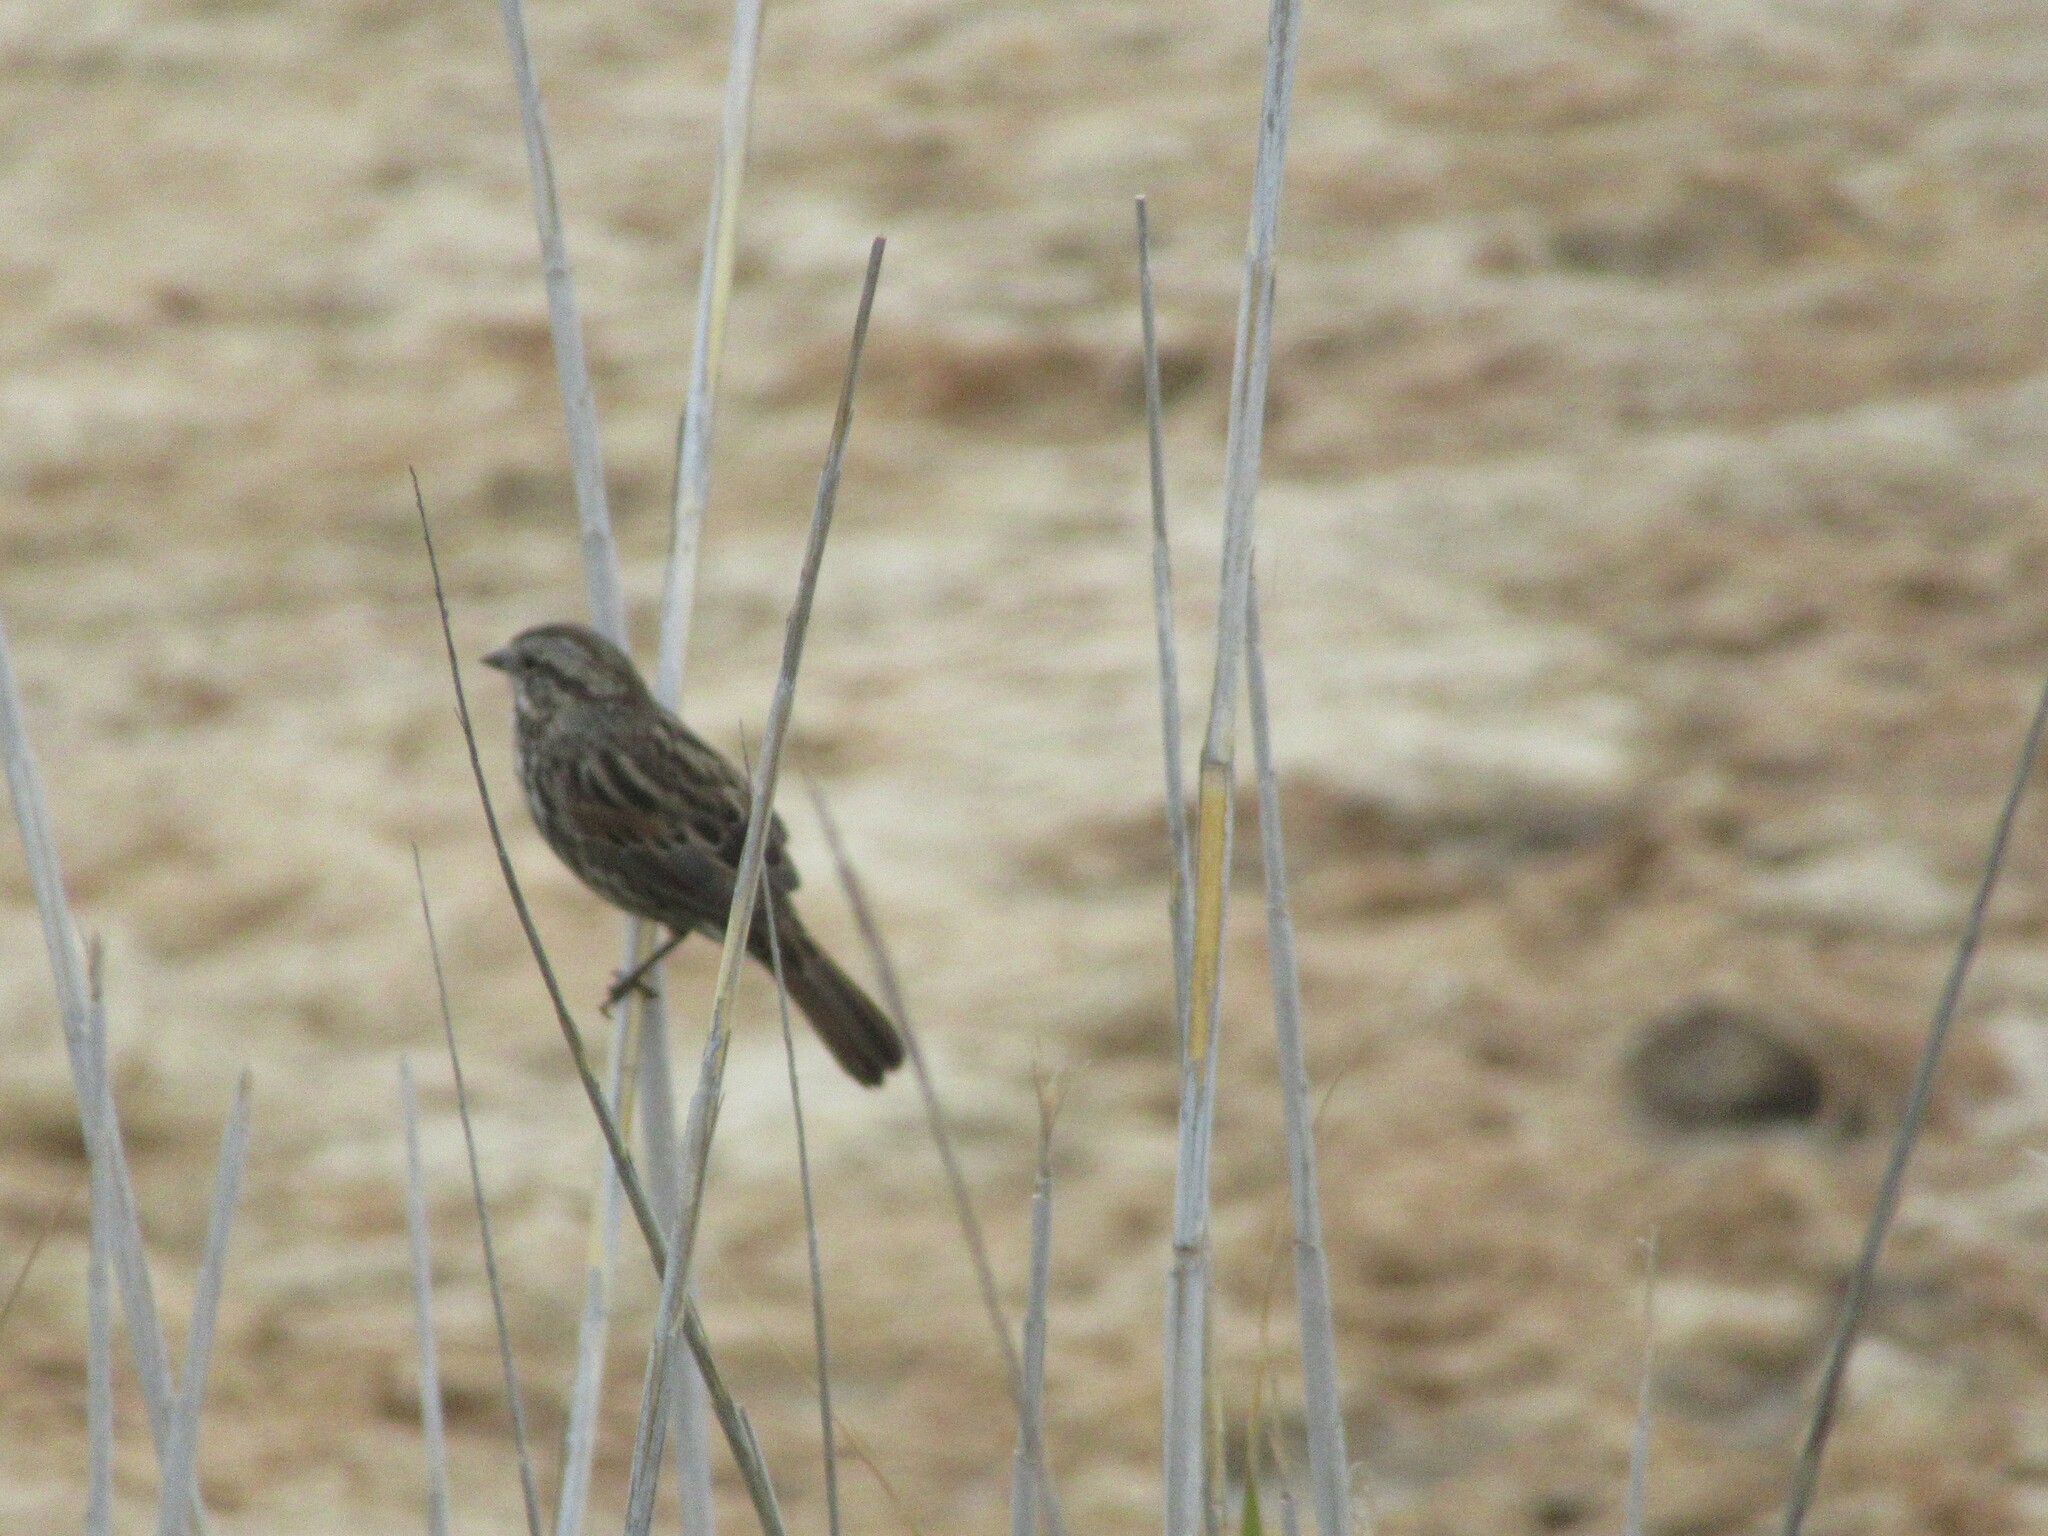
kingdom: Animalia
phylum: Chordata
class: Aves
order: Passeriformes
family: Passerellidae
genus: Melospiza
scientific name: Melospiza melodia
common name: Song sparrow
